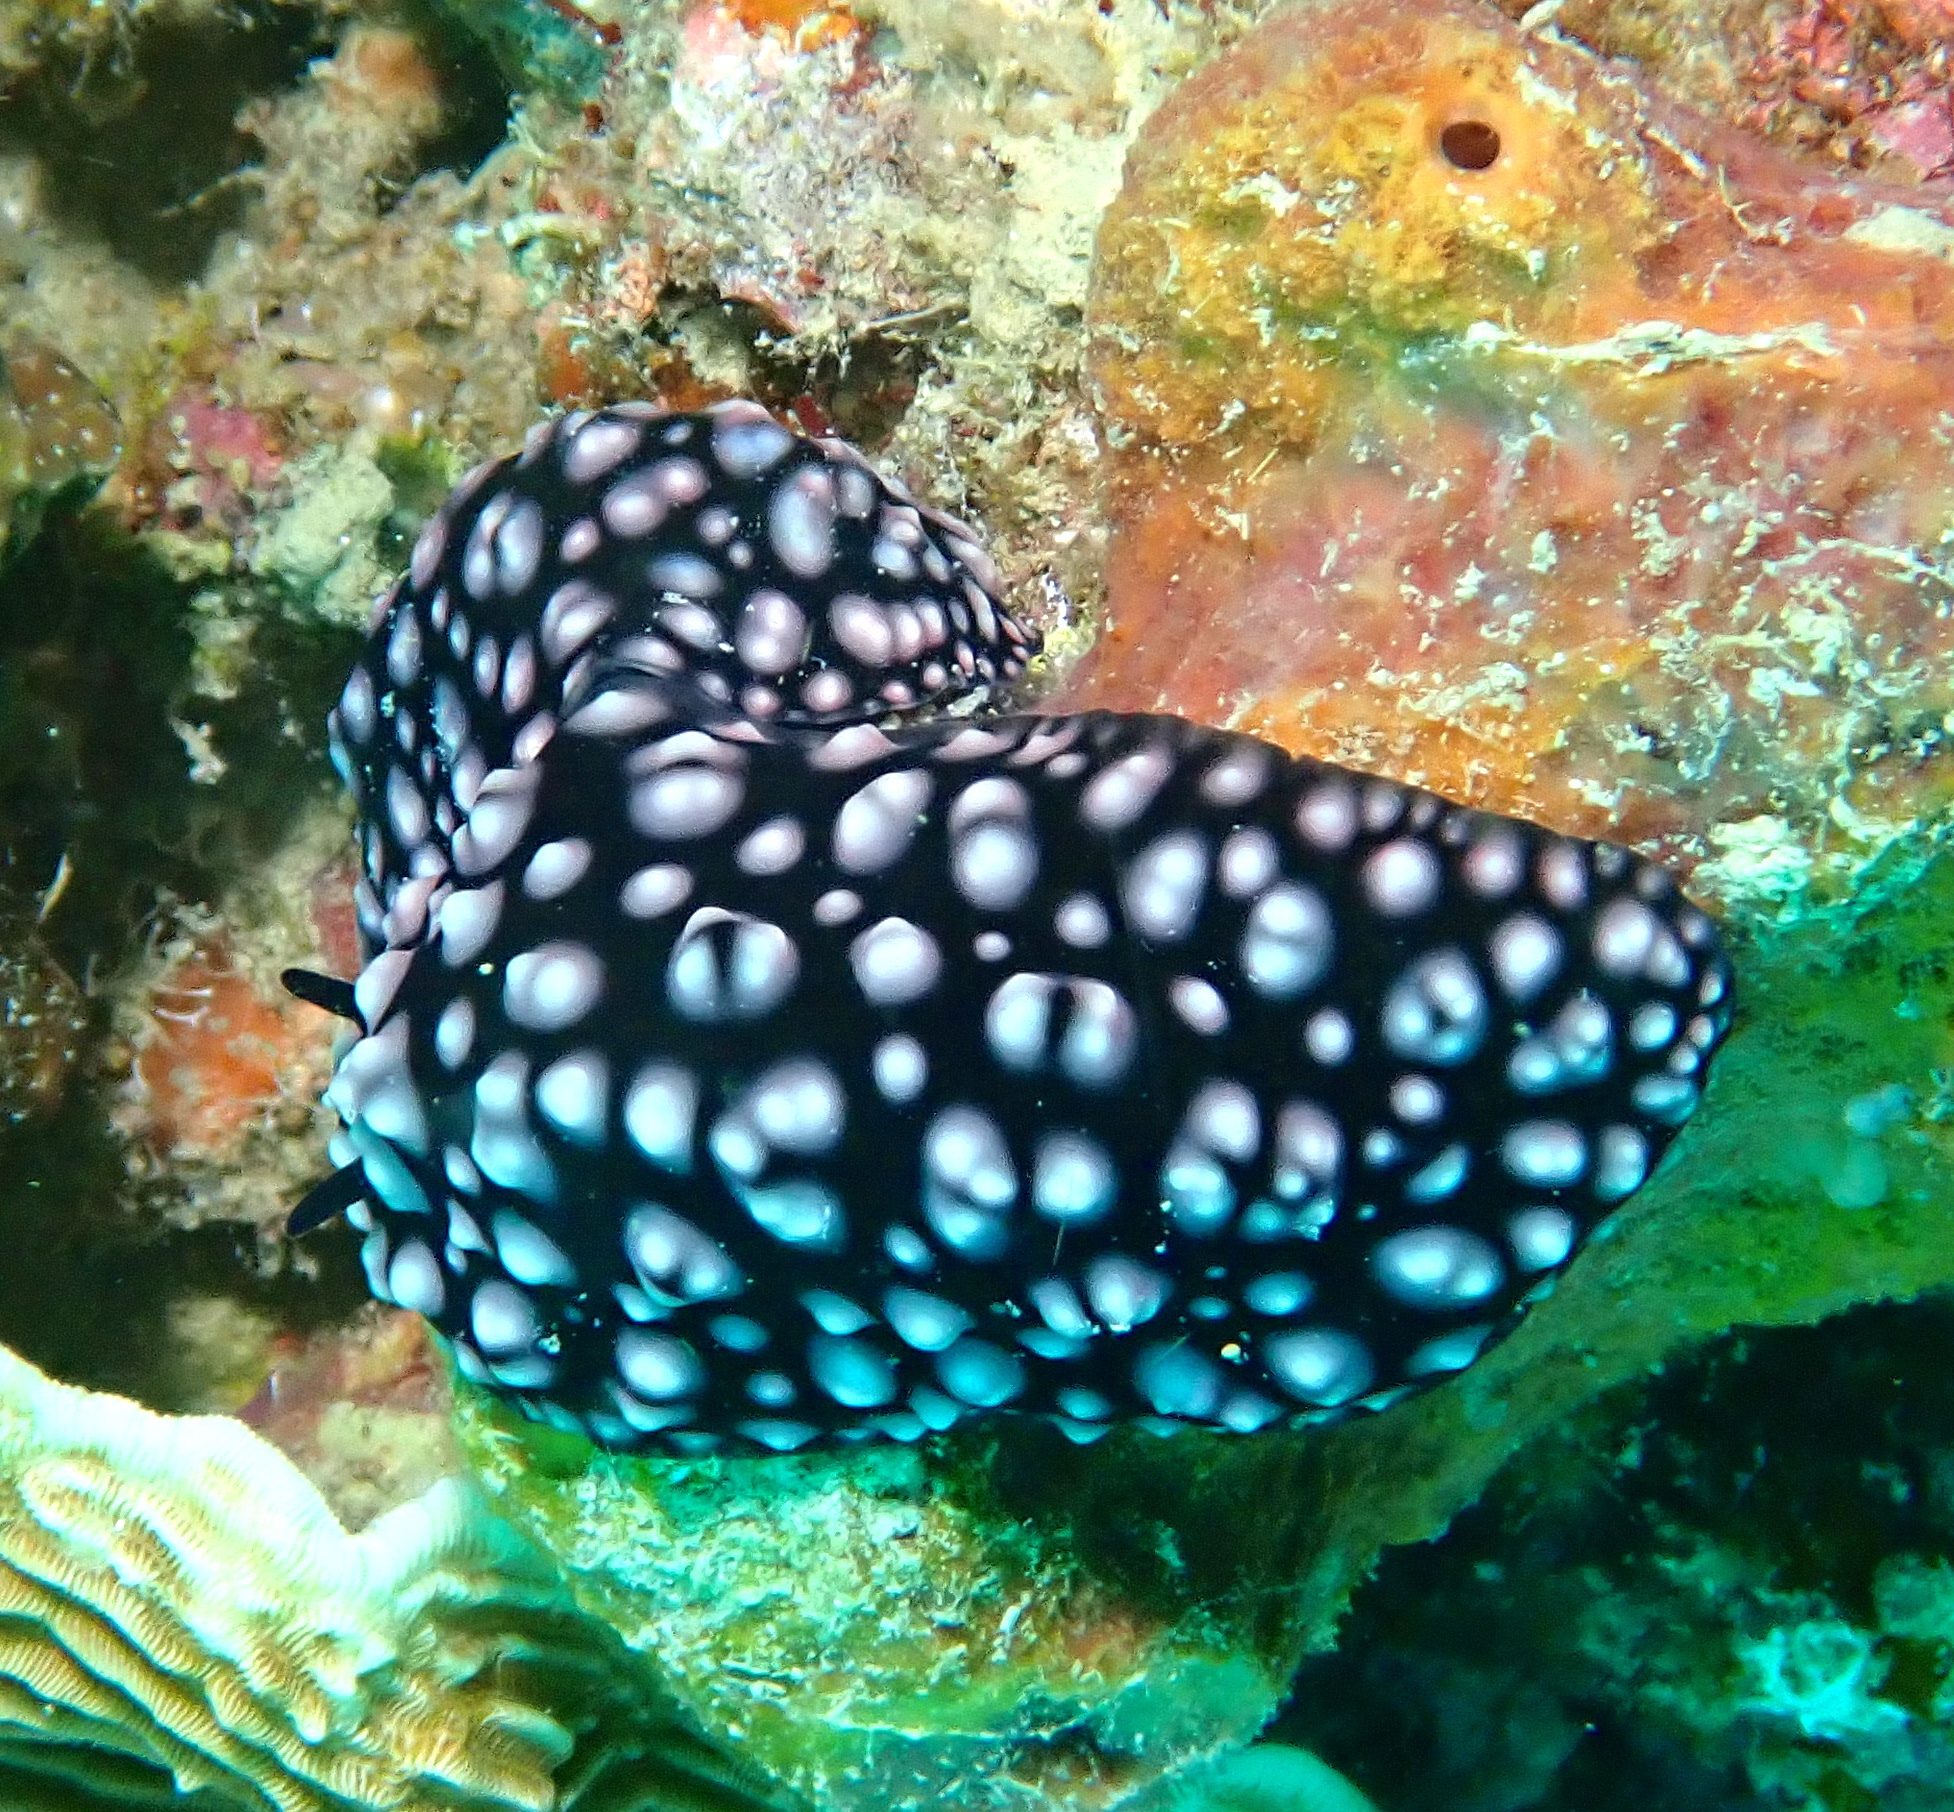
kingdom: Animalia
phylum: Mollusca
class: Gastropoda
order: Nudibranchia
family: Phyllidiidae
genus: Phyllidiella
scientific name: Phyllidiella nigra
